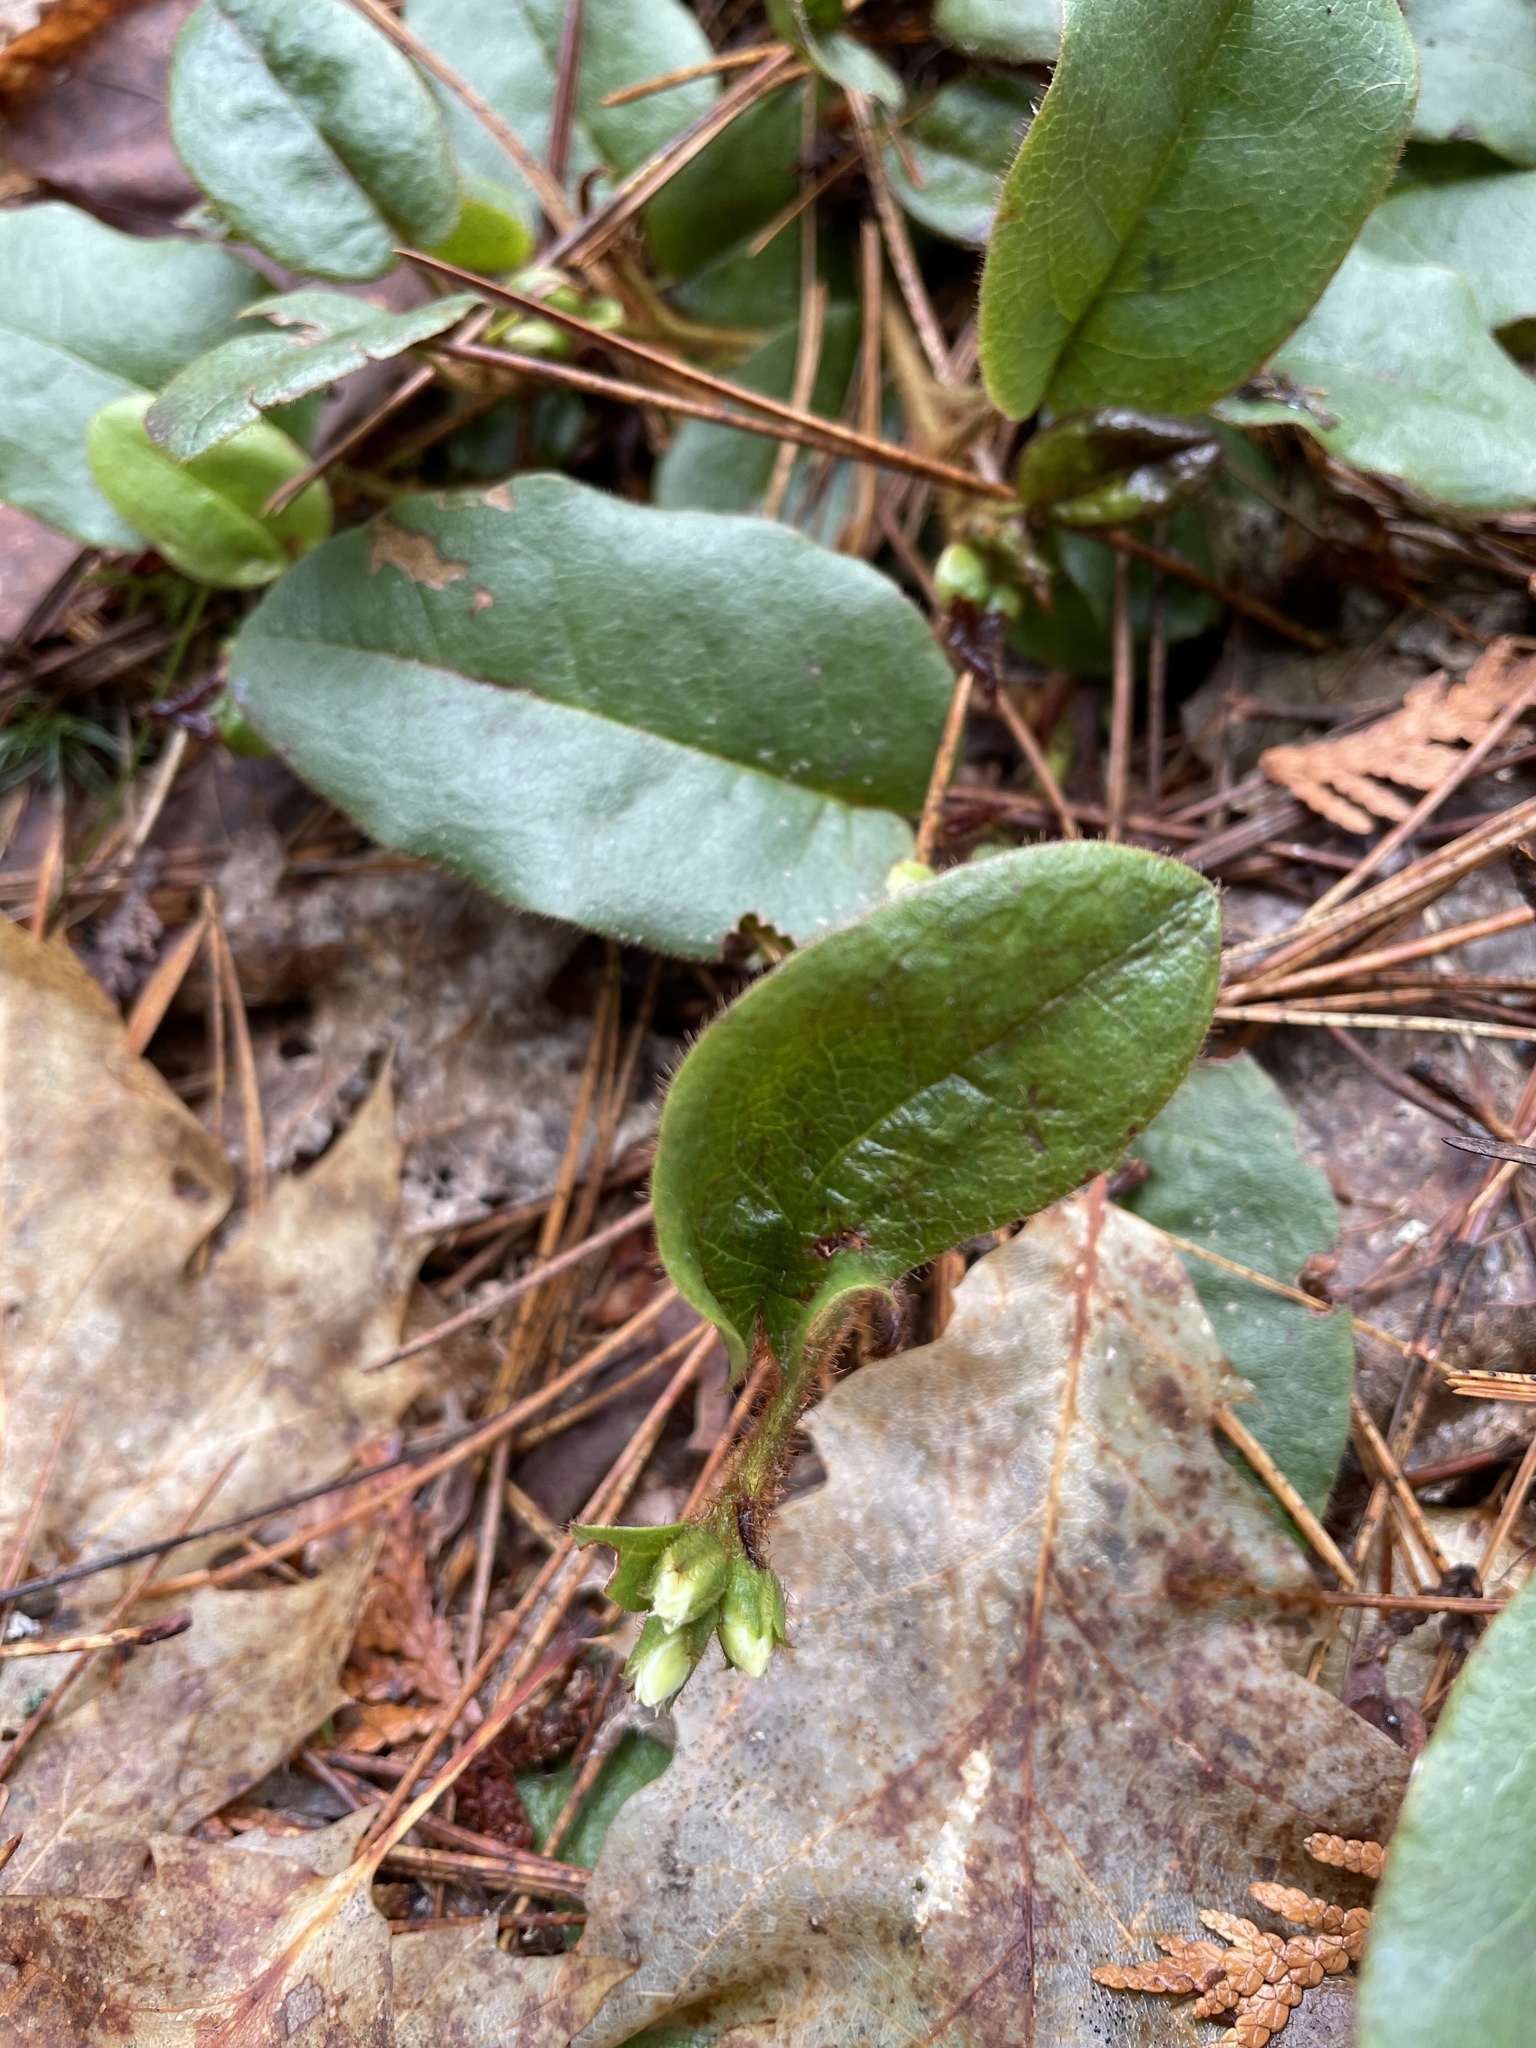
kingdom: Plantae
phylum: Tracheophyta
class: Magnoliopsida
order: Ericales
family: Ericaceae
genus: Epigaea
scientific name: Epigaea repens
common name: Gravelroot
